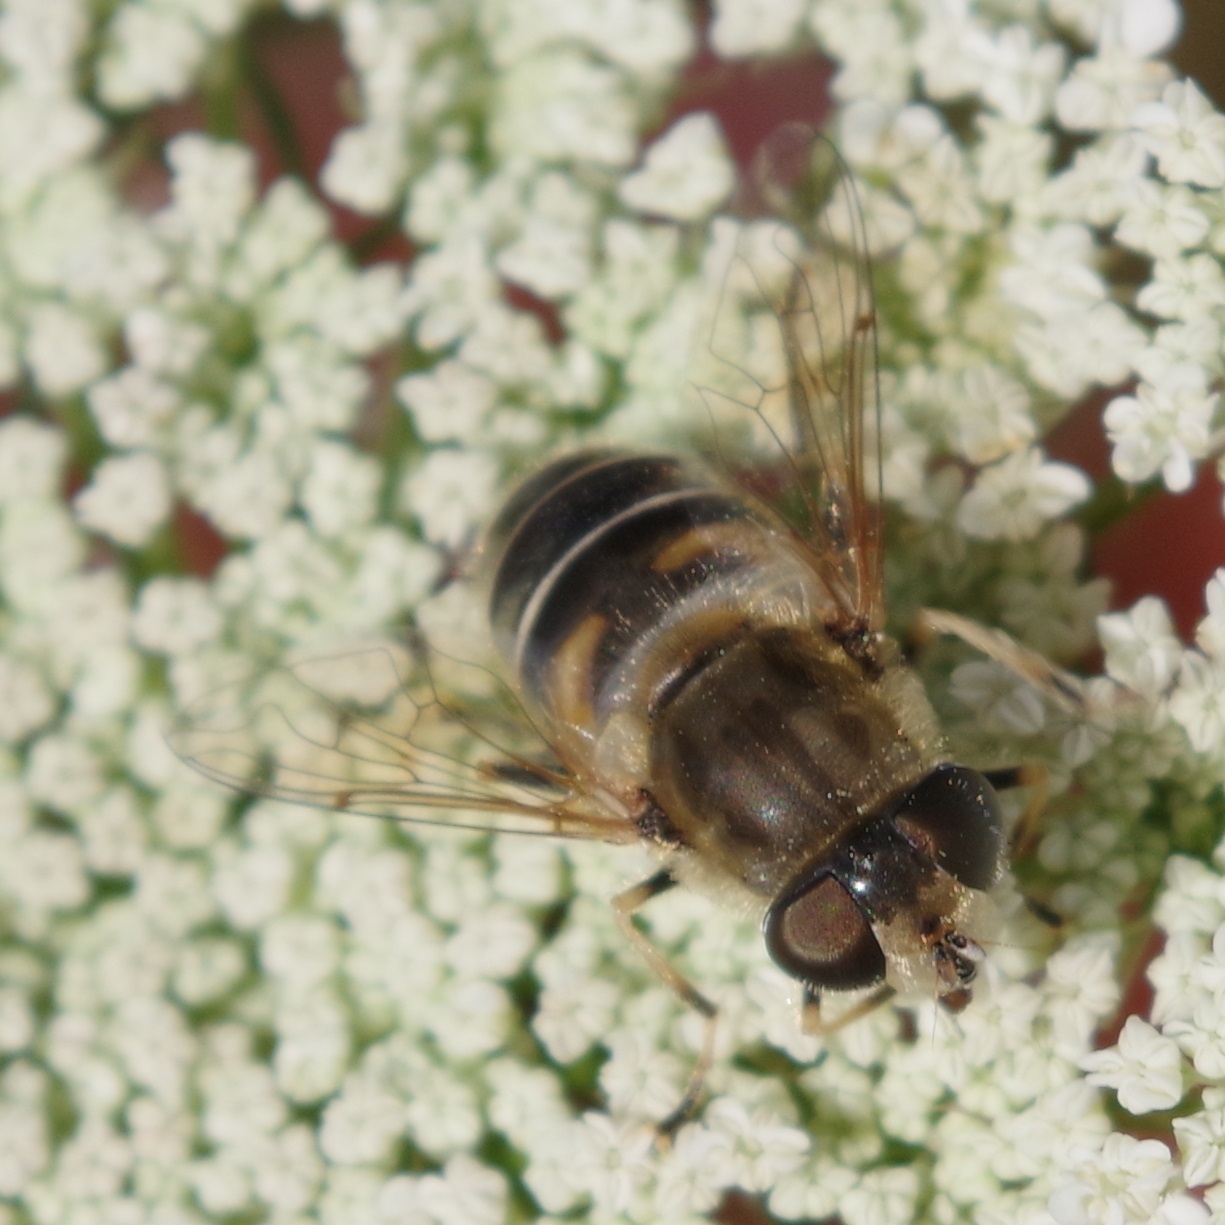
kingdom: Animalia
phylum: Arthropoda
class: Insecta
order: Diptera
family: Syrphidae
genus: Eristalis
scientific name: Eristalis nemorum
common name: Orange-spined drone fly
